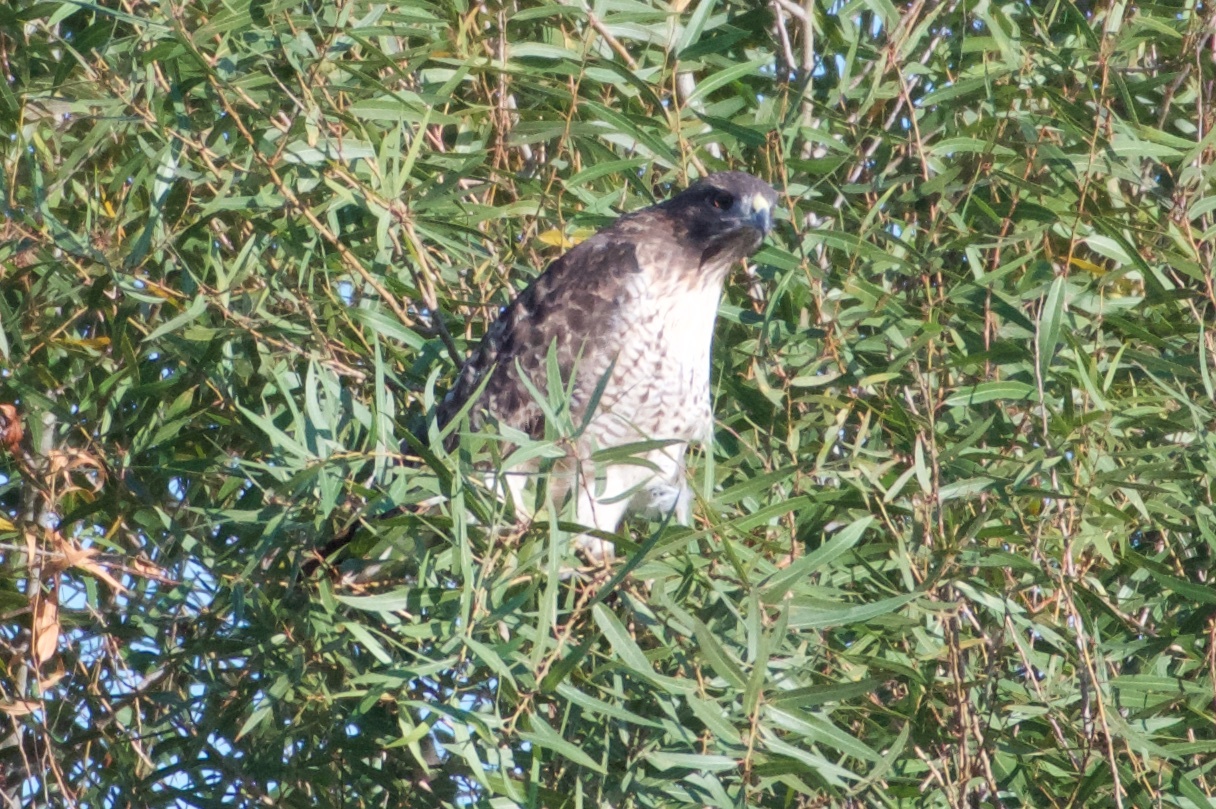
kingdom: Animalia
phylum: Chordata
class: Aves
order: Accipitriformes
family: Accipitridae
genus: Buteo
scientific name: Buteo jamaicensis
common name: Red-tailed hawk
